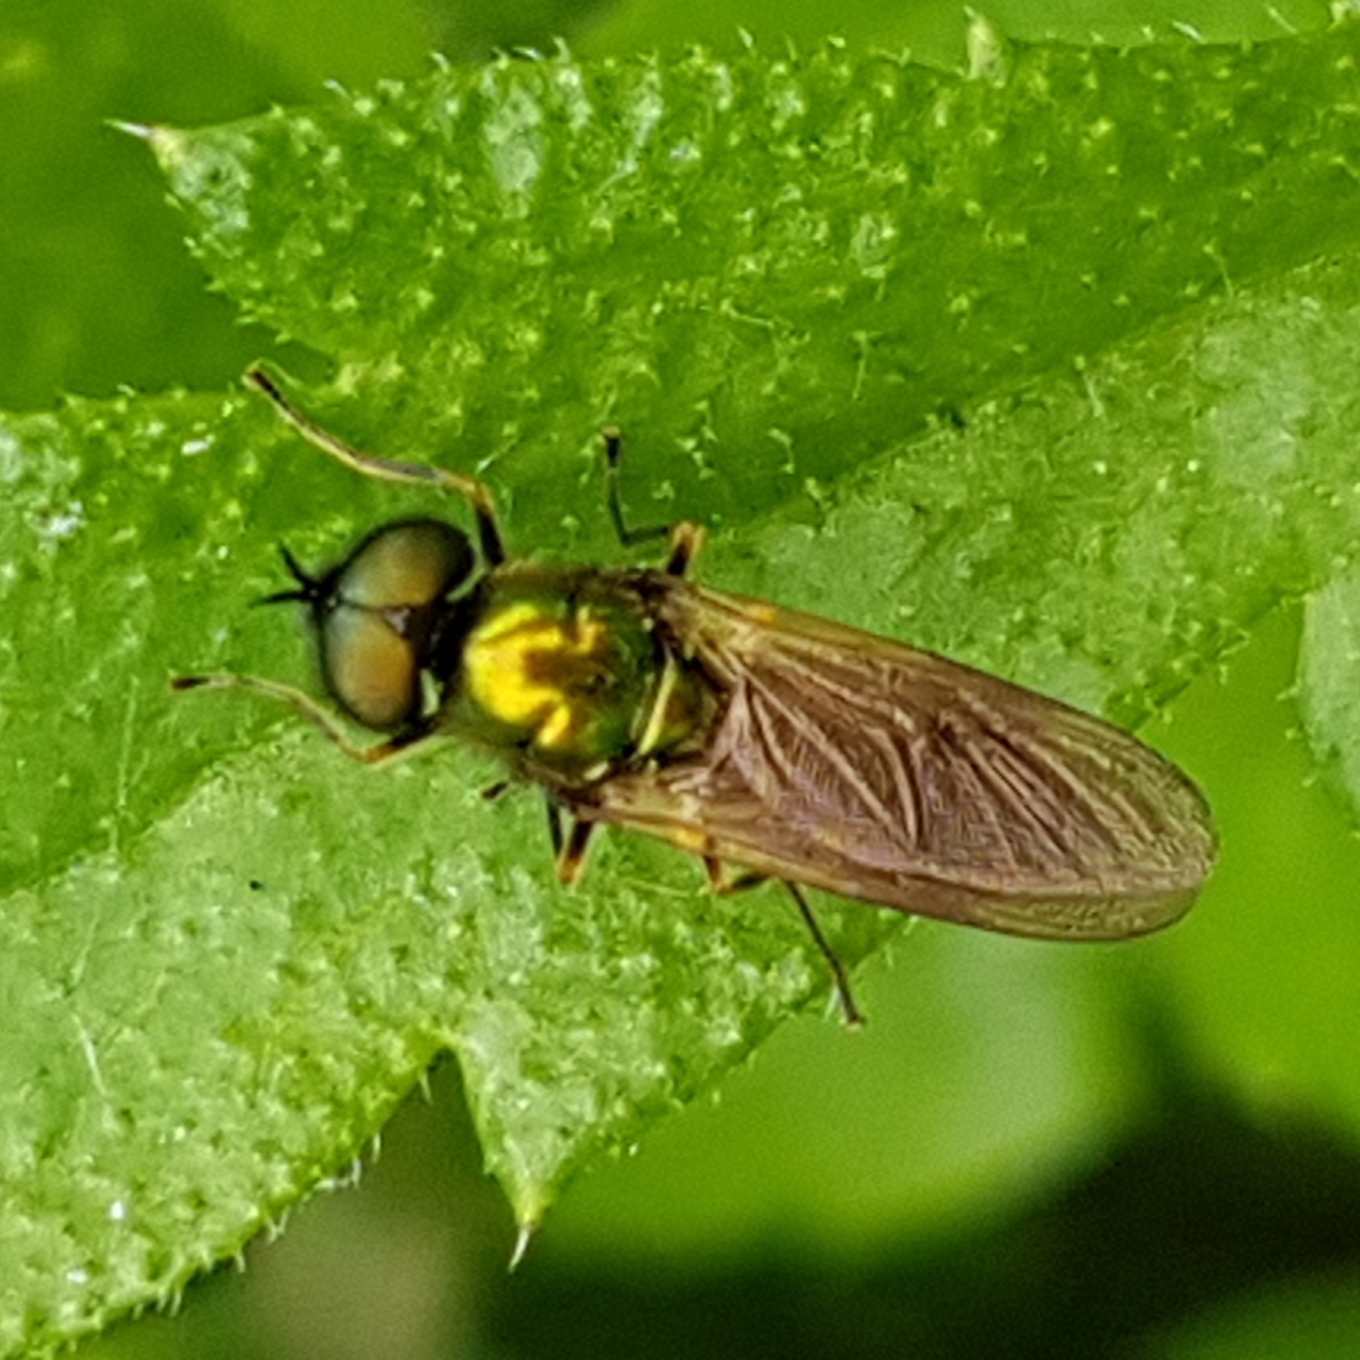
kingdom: Animalia
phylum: Arthropoda
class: Insecta
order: Diptera
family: Stratiomyidae
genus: Chloromyia
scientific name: Chloromyia formosa
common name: Soldier fly
